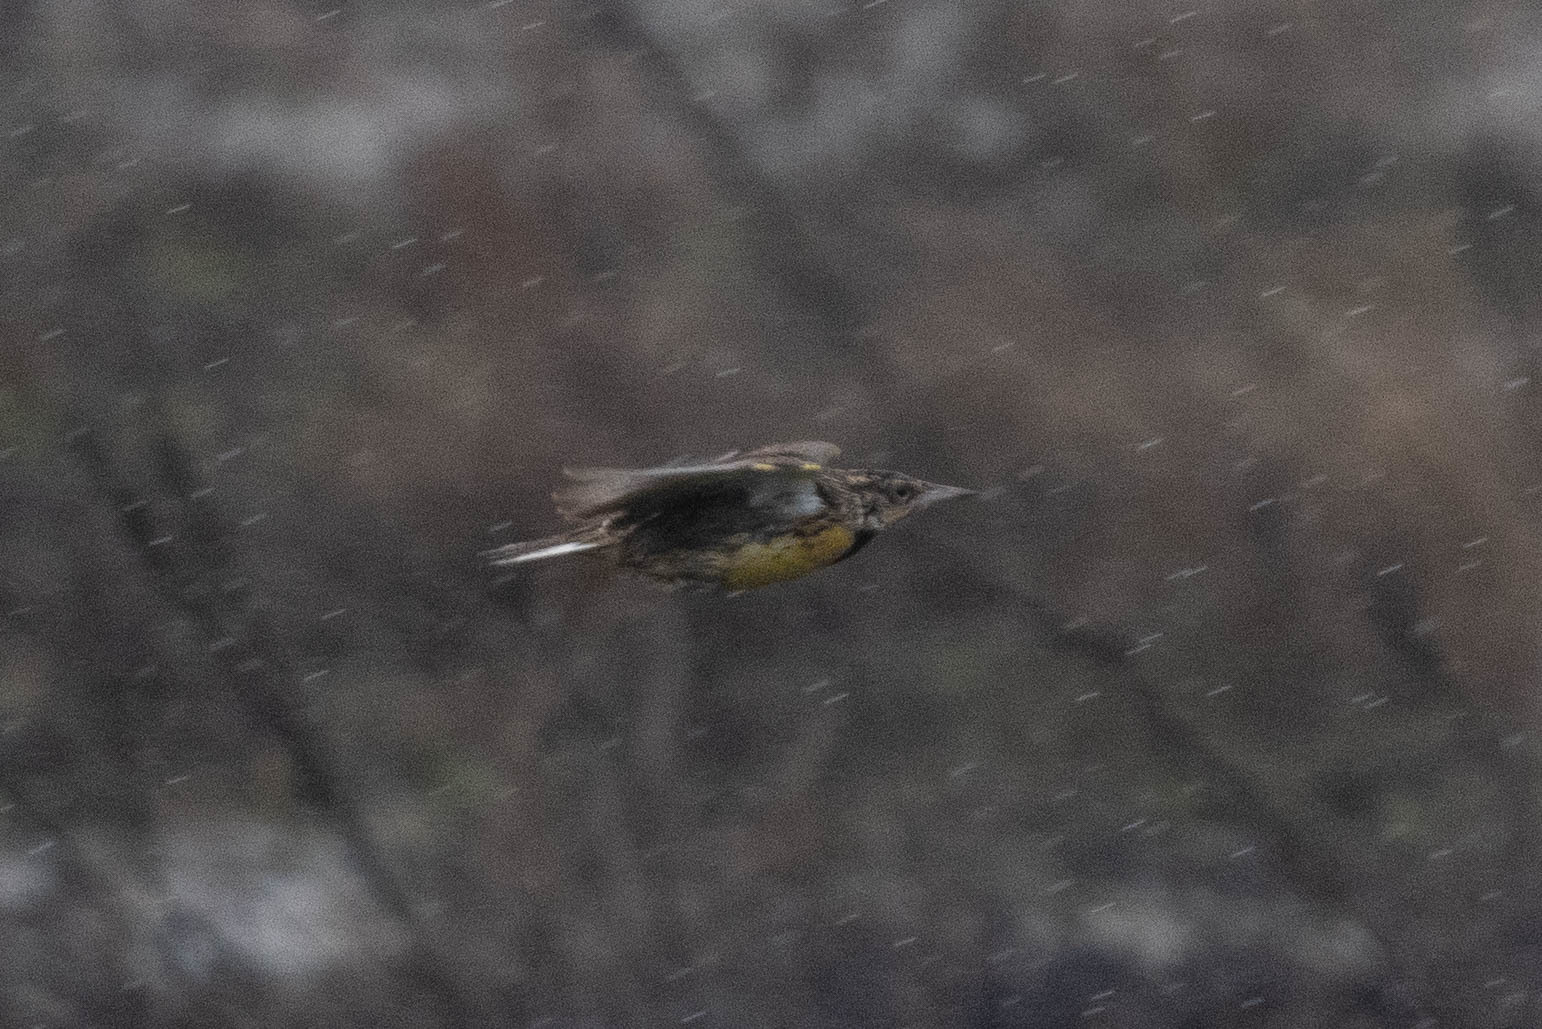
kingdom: Animalia
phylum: Chordata
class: Aves
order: Passeriformes
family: Icteridae
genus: Sturnella
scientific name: Sturnella neglecta
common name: Western meadowlark
